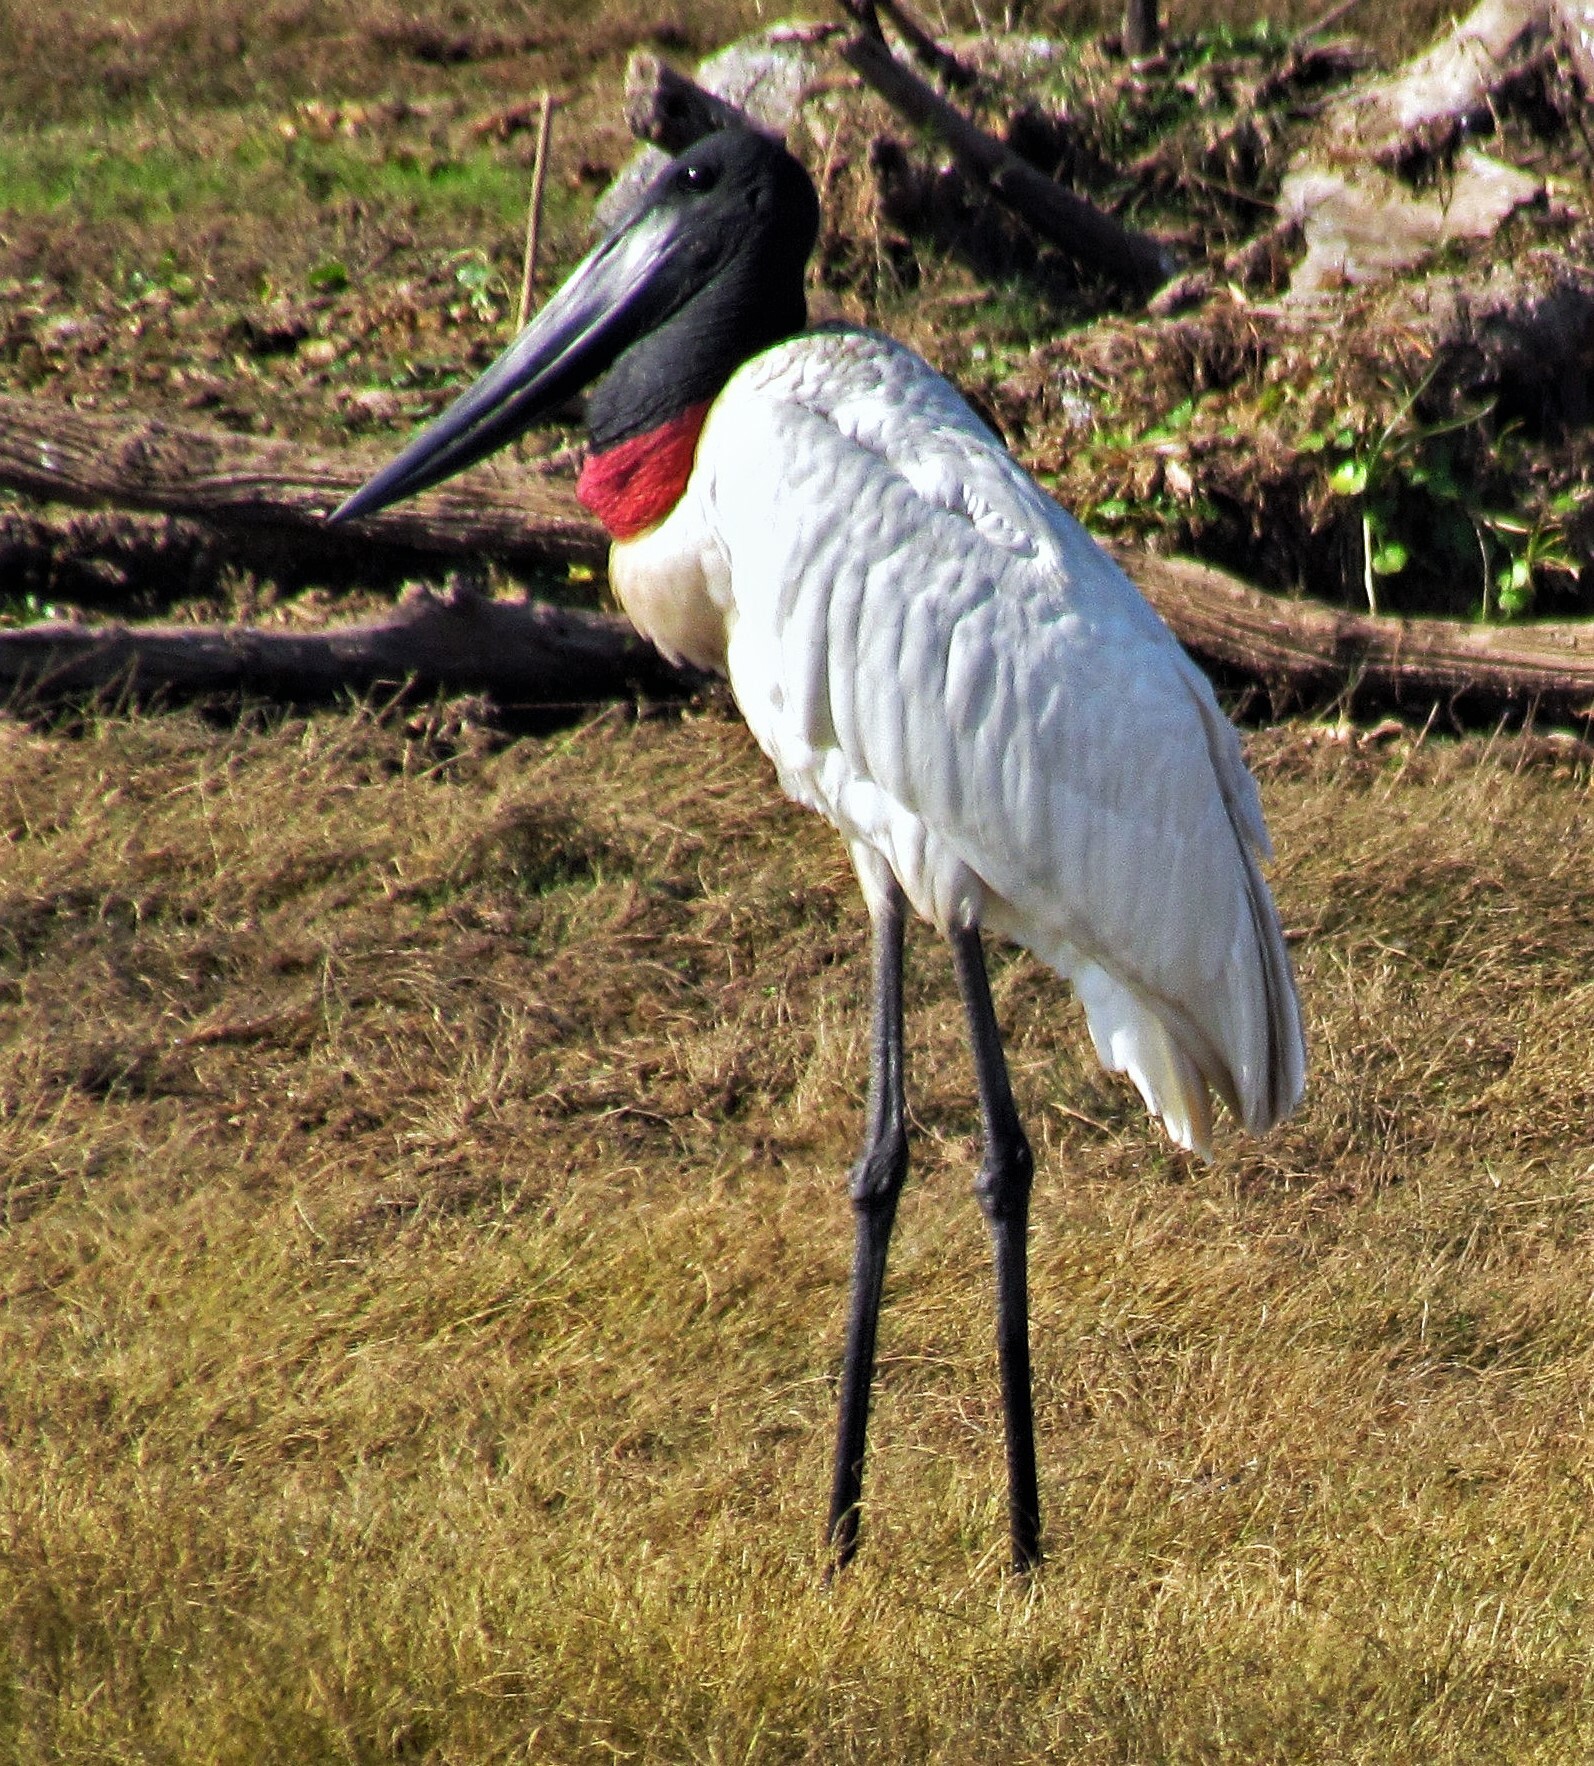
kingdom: Animalia
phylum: Chordata
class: Aves
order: Ciconiiformes
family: Ciconiidae
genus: Jabiru
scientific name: Jabiru mycteria
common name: Jabiru
